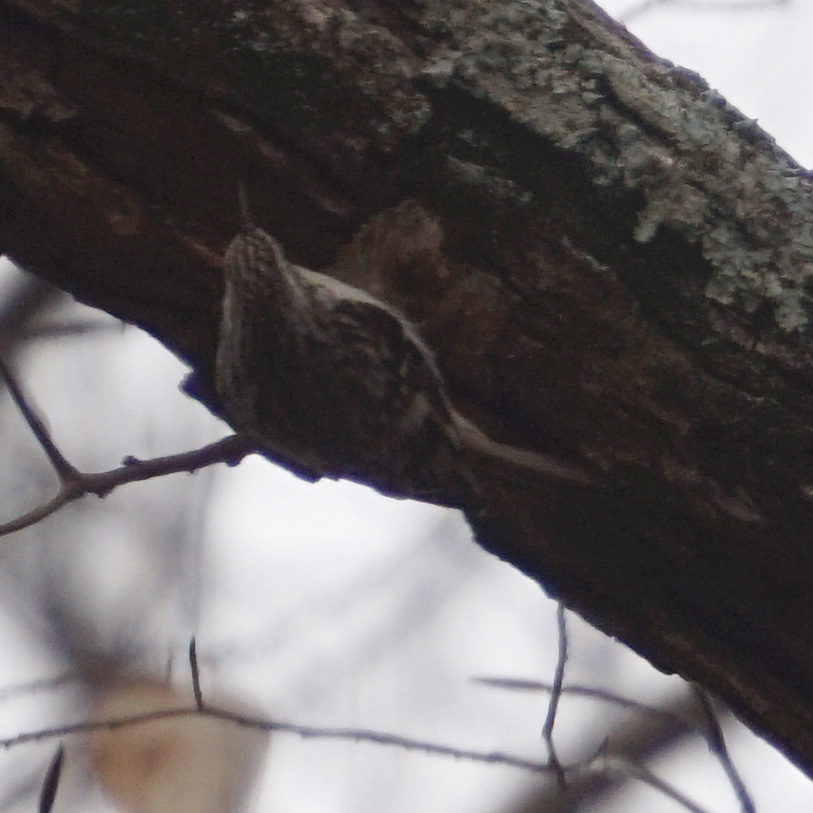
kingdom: Animalia
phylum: Chordata
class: Aves
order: Passeriformes
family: Certhiidae
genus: Certhia
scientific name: Certhia americana
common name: Brown creeper
